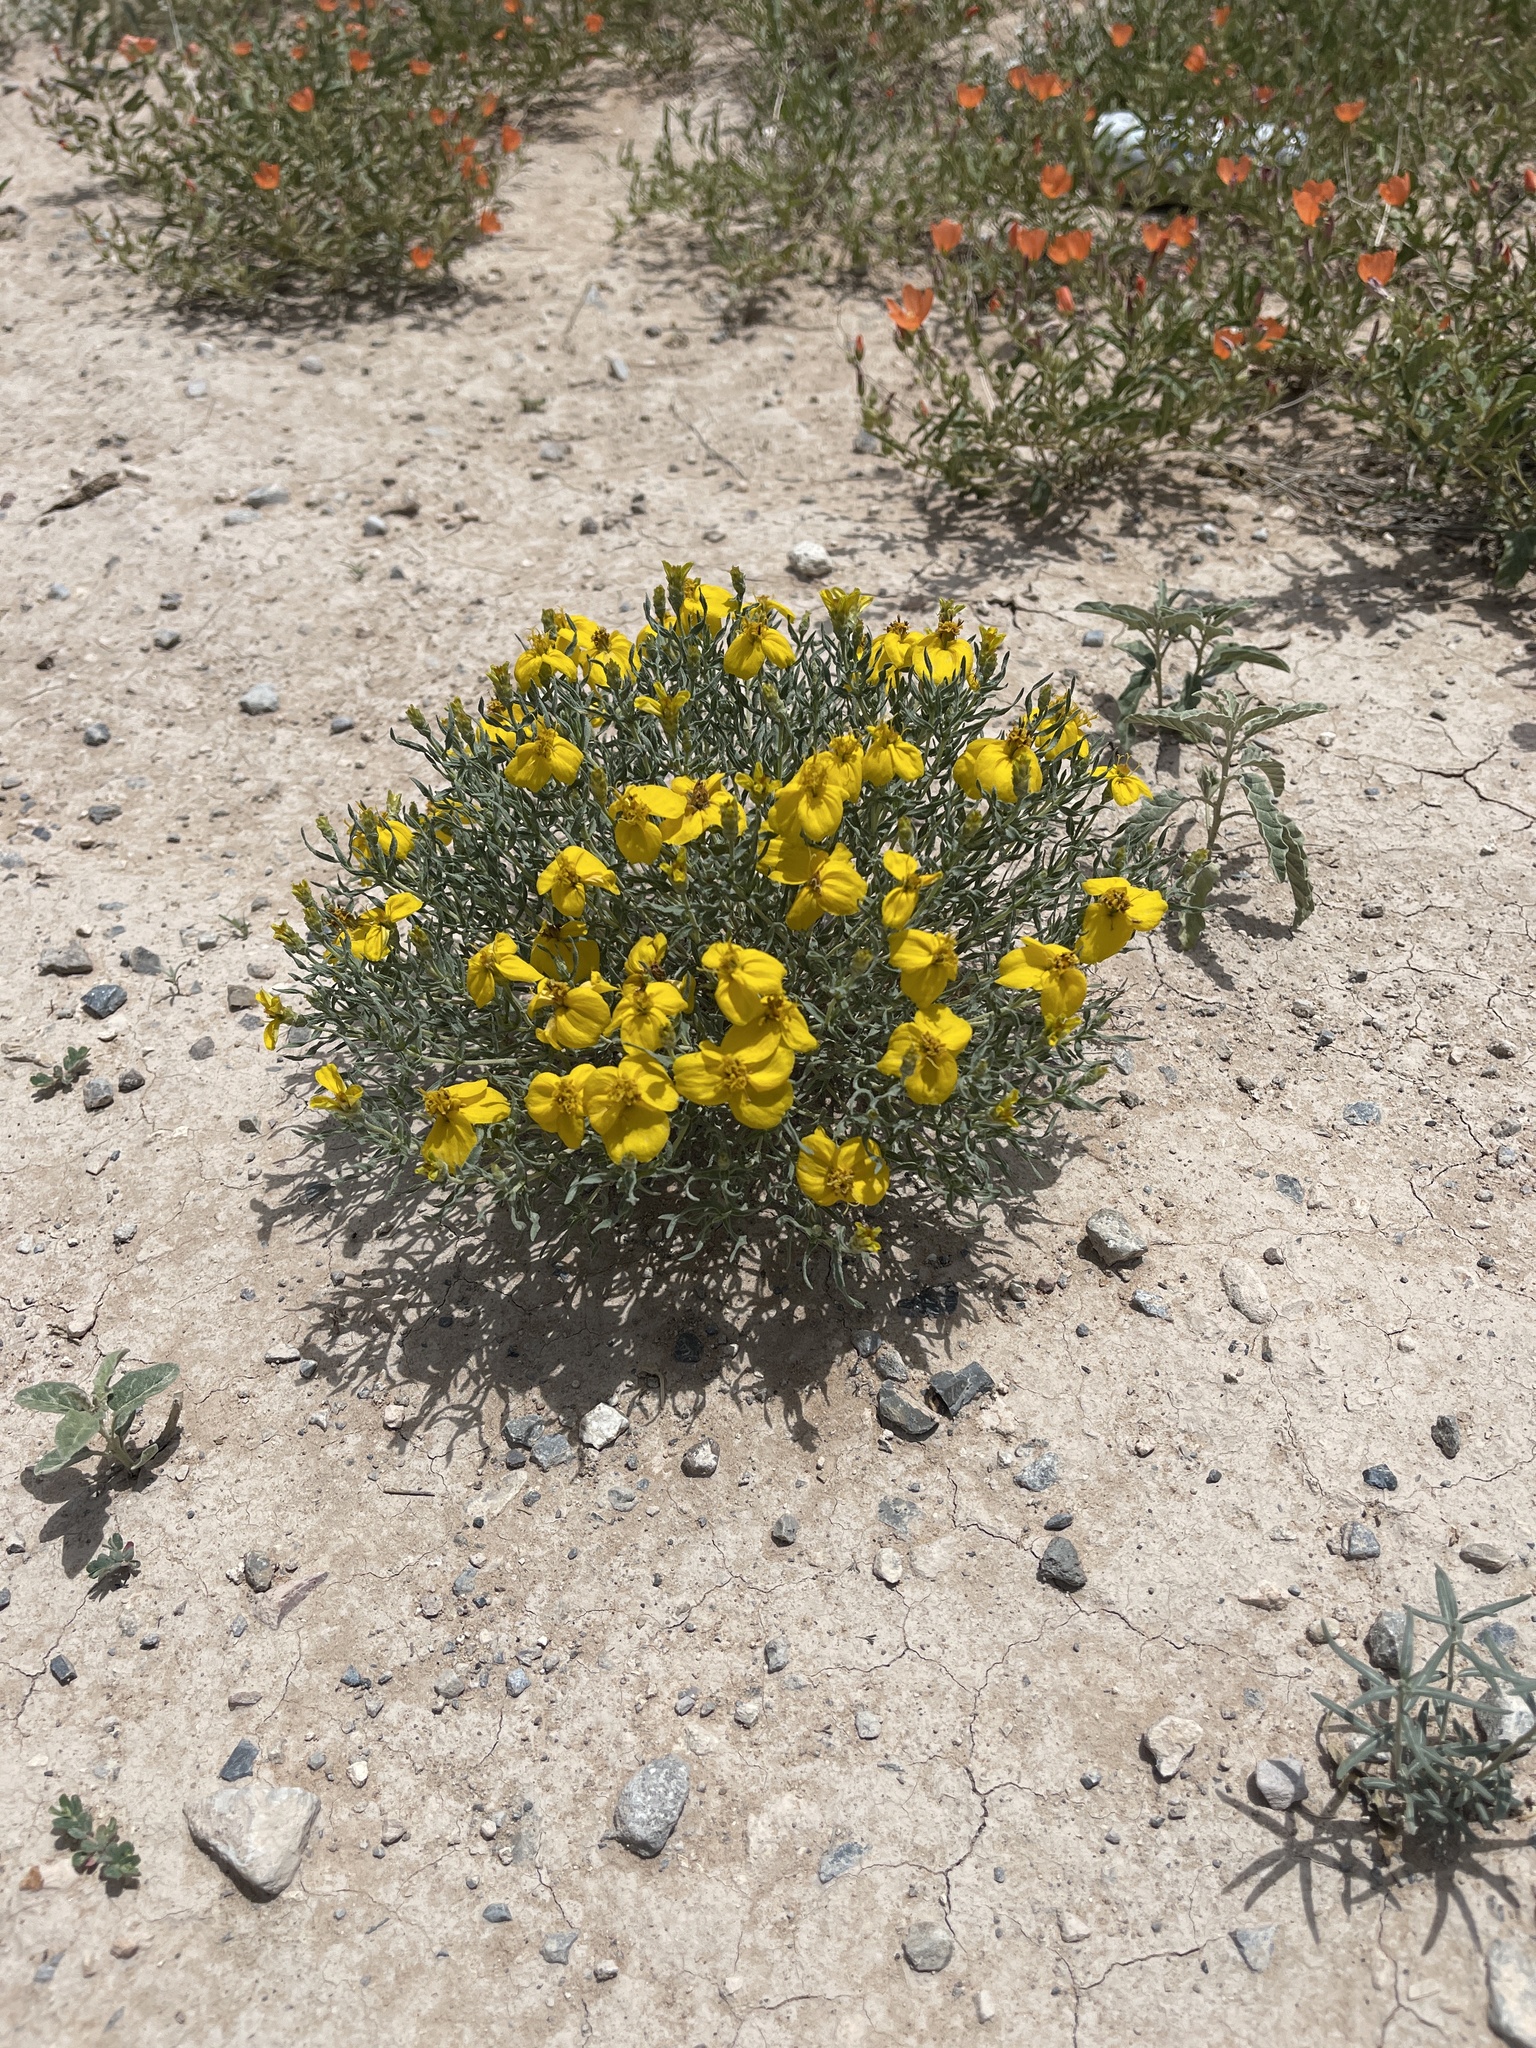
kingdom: Plantae
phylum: Tracheophyta
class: Magnoliopsida
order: Asterales
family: Asteraceae
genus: Zinnia
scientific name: Zinnia grandiflora
